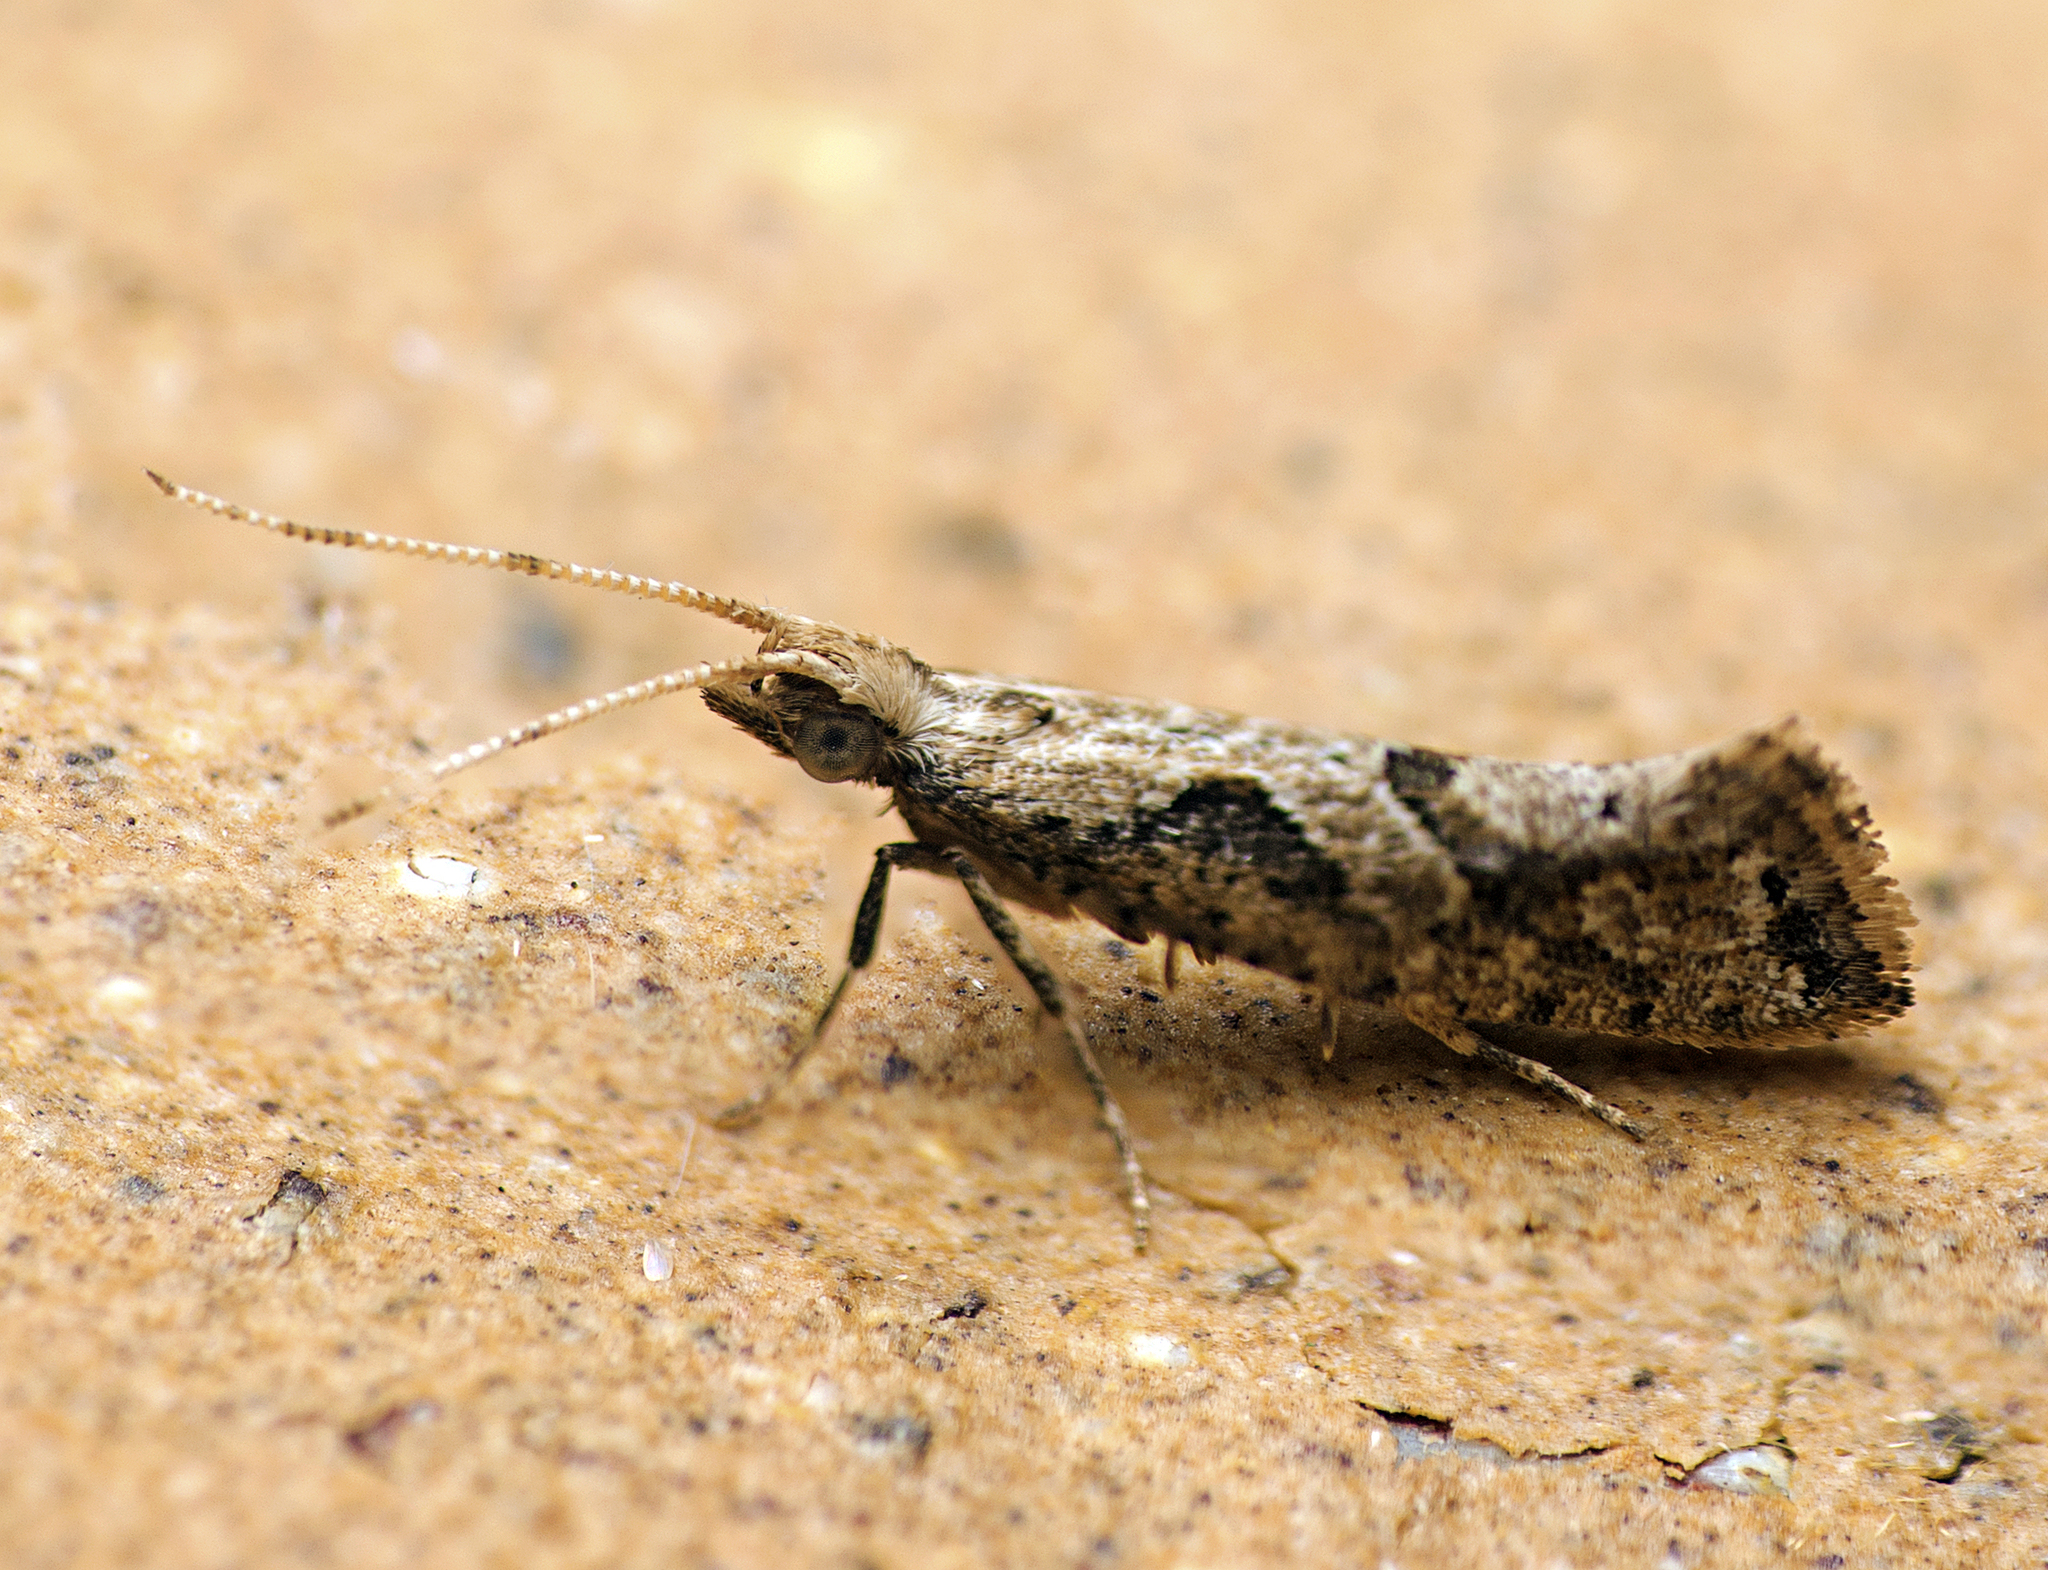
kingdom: Animalia
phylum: Arthropoda
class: Insecta
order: Lepidoptera
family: Plutellidae
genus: Leuroperna
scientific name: Leuroperna sera
